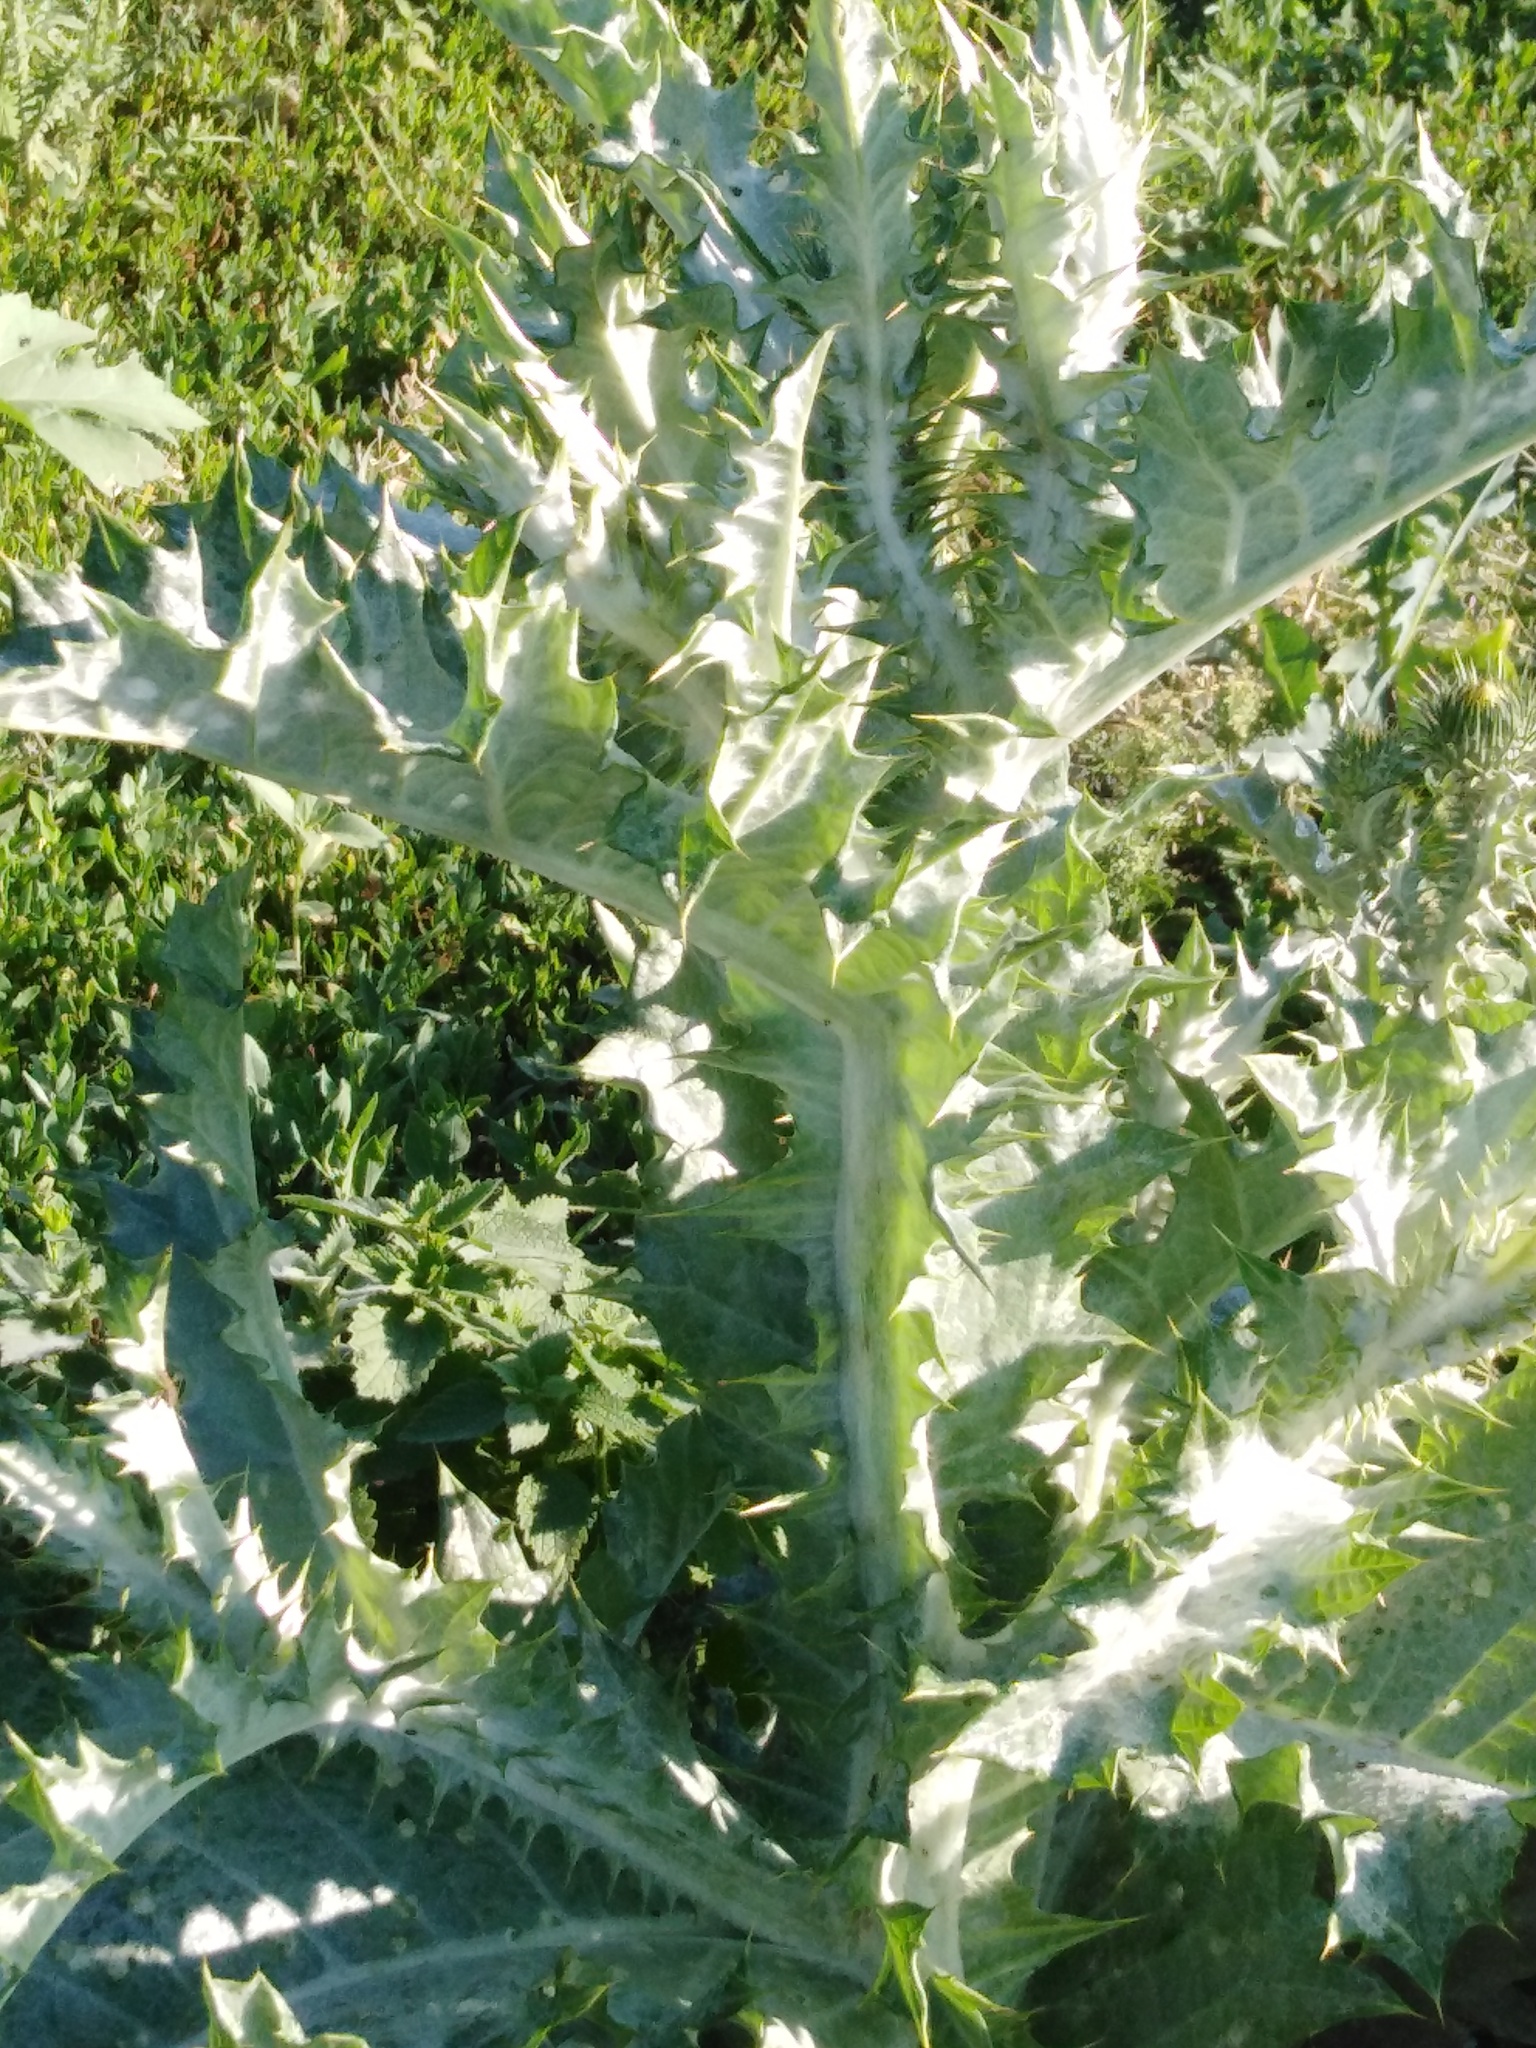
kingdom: Plantae
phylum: Tracheophyta
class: Magnoliopsida
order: Asterales
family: Asteraceae
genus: Onopordum
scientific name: Onopordum acanthium
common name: Scotch thistle
